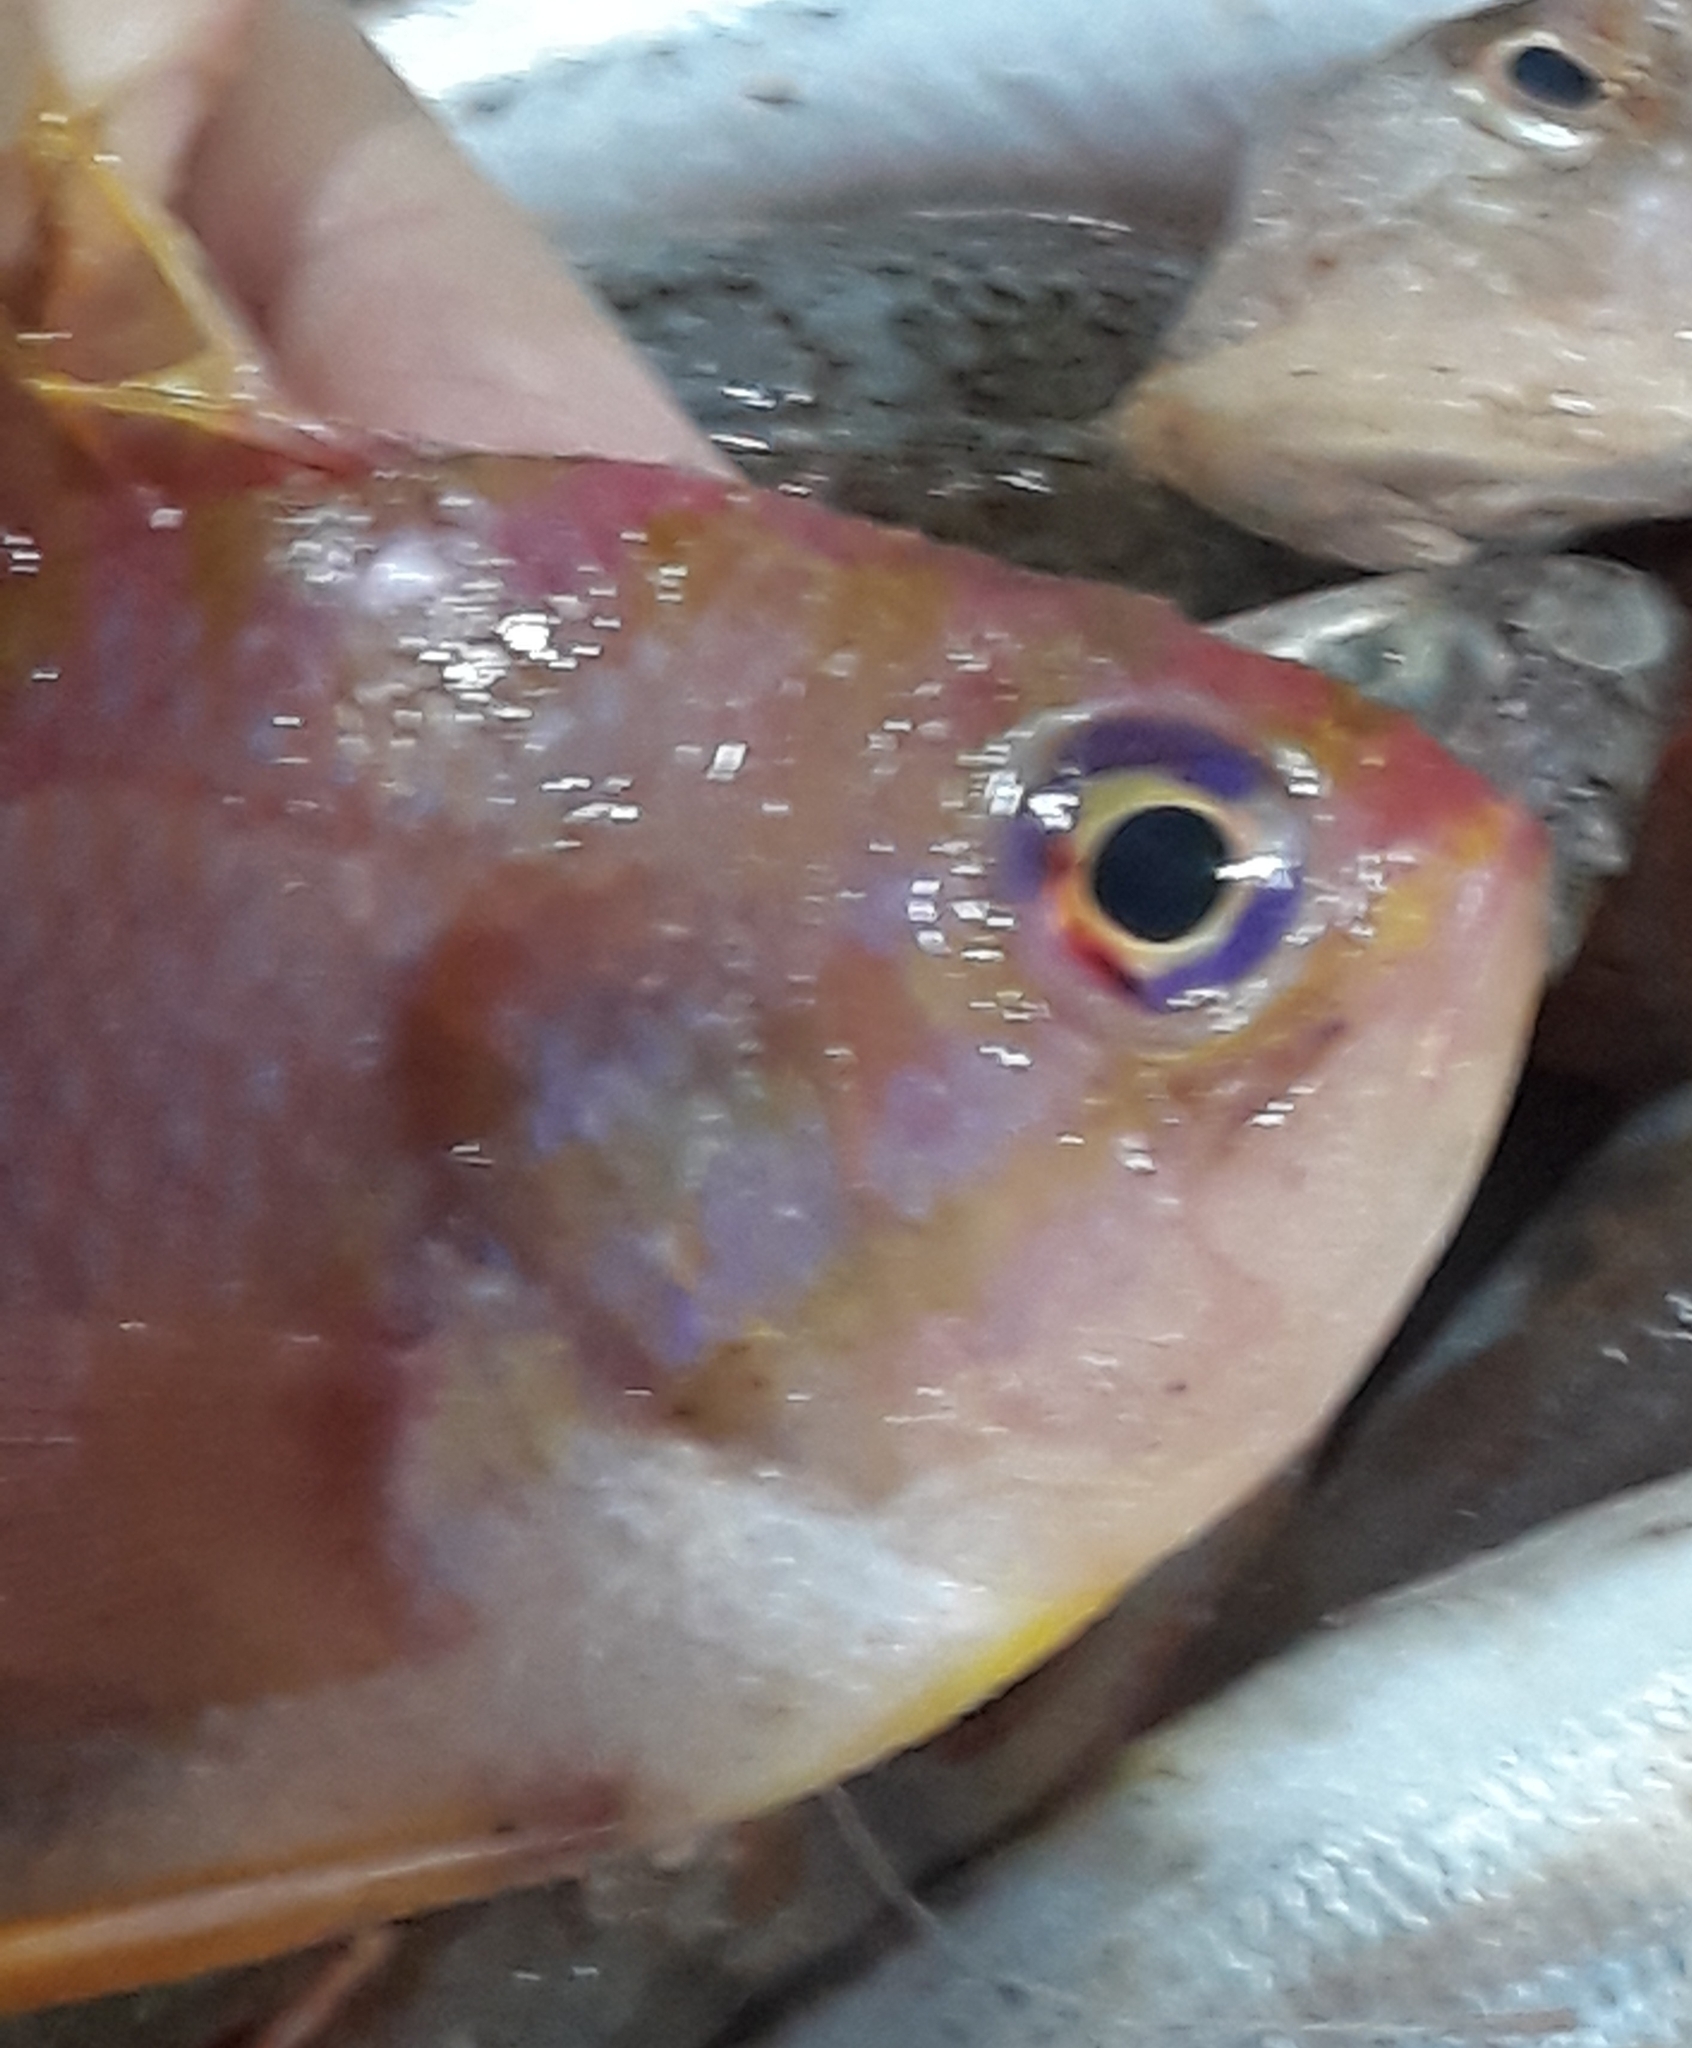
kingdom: Animalia
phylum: Chordata
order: Perciformes
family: Serranidae
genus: Anthias
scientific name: Anthias anthias
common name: Swallowtail seaperch
